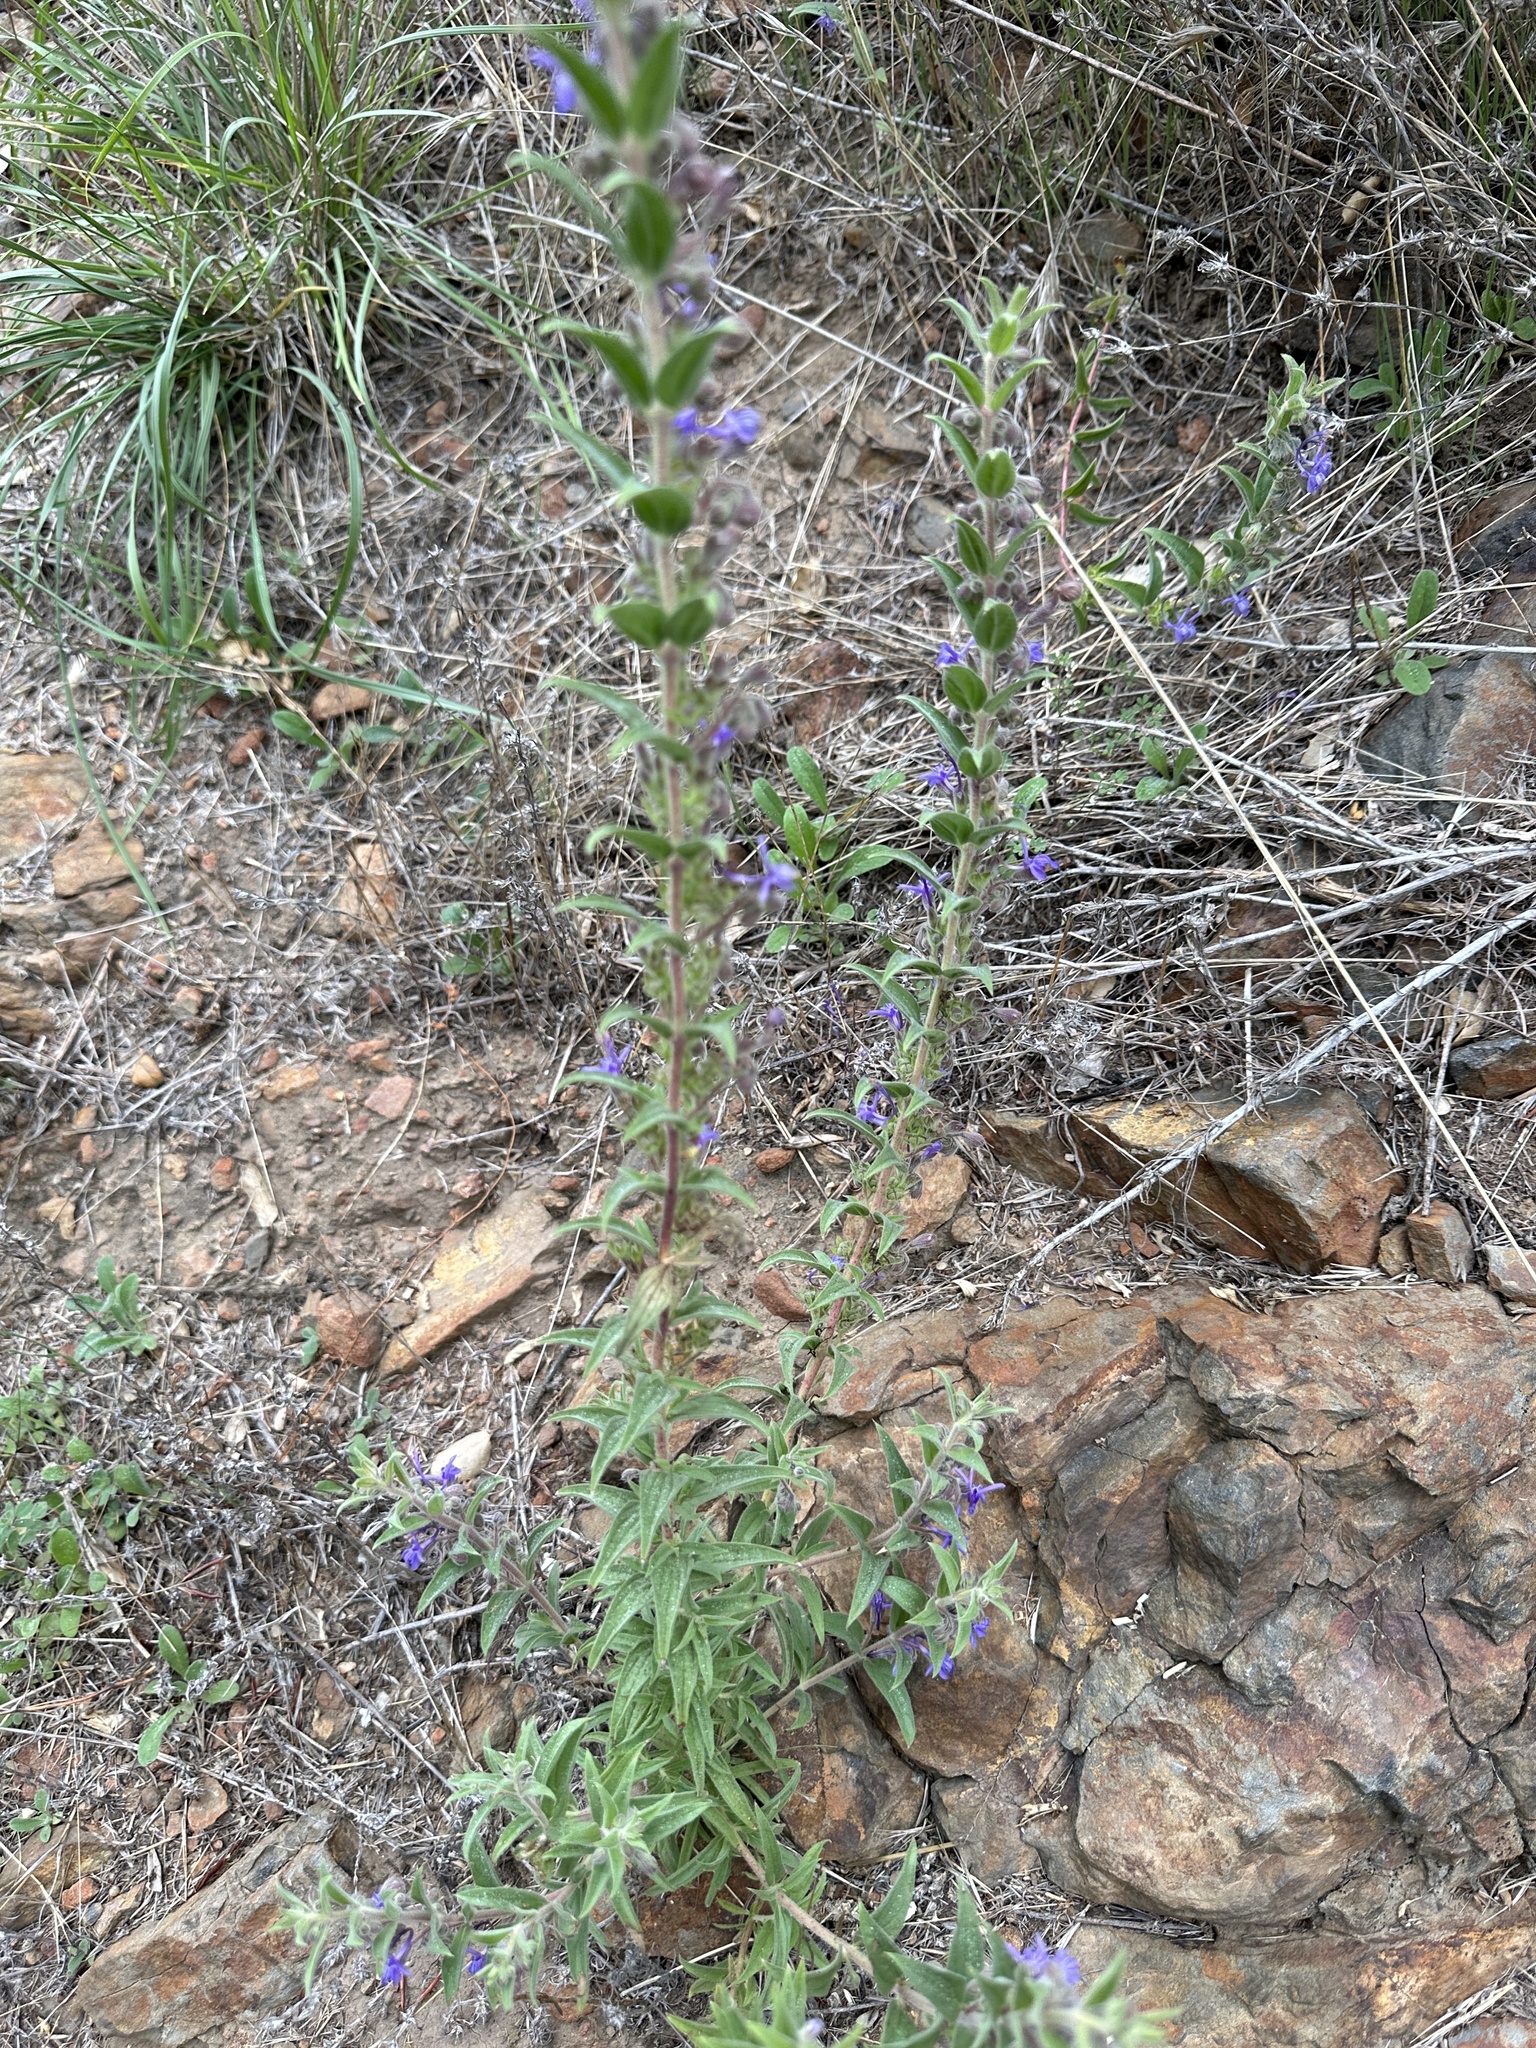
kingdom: Plantae
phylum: Tracheophyta
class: Magnoliopsida
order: Lamiales
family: Lamiaceae
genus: Trichostema
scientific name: Trichostema lanceolatum
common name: Vinegar-weed
